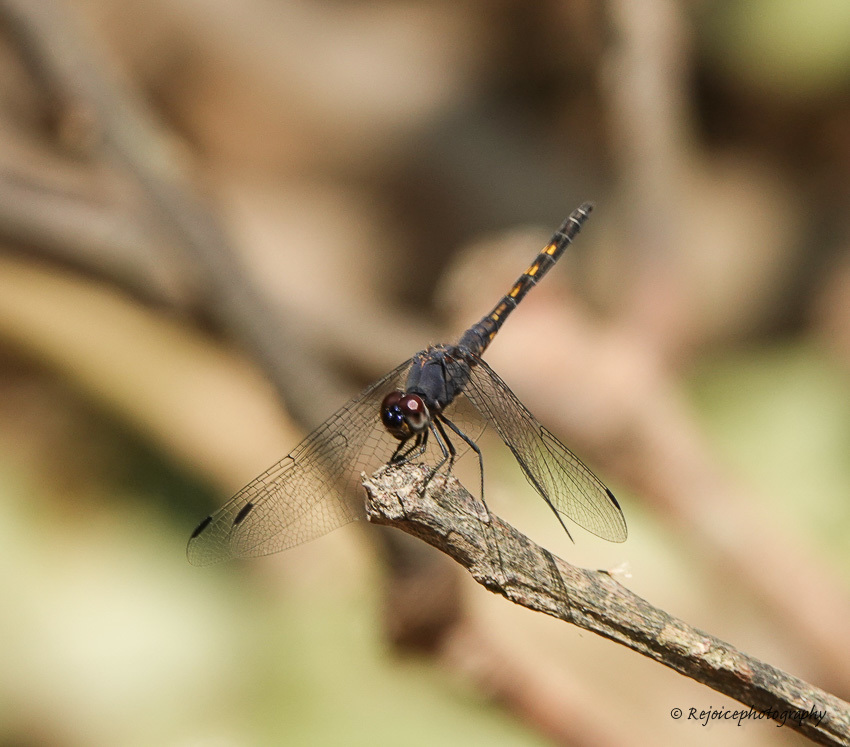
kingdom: Animalia
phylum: Arthropoda
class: Insecta
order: Odonata
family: Libellulidae
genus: Trithemis
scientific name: Trithemis festiva
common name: Indigo dropwing
